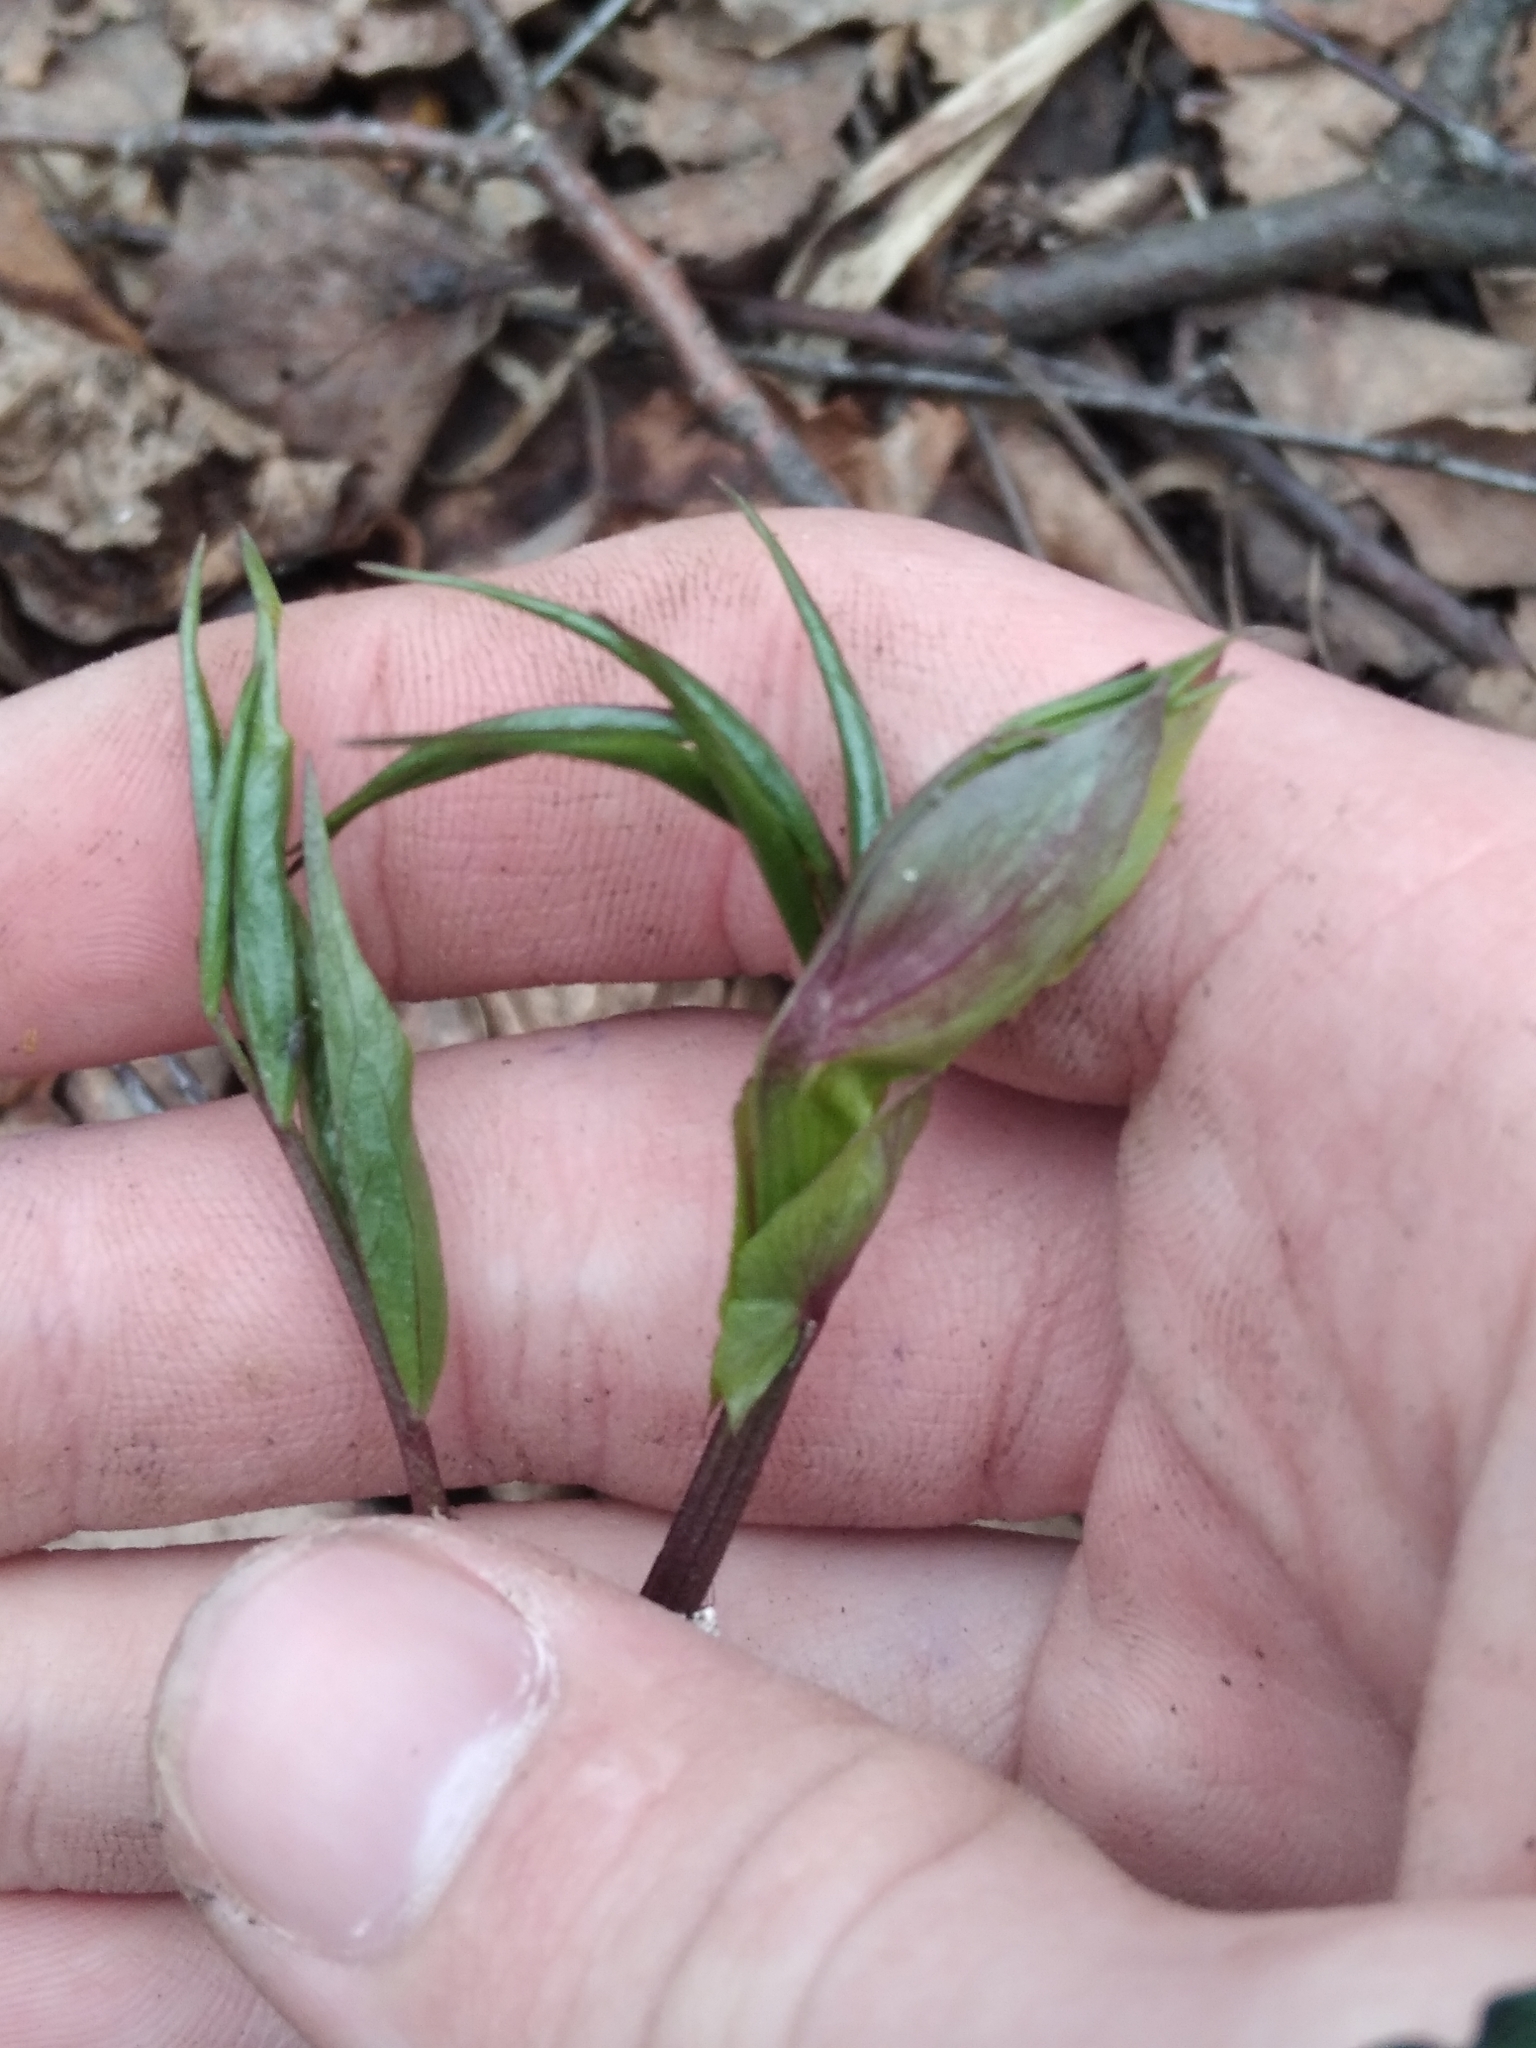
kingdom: Plantae
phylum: Tracheophyta
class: Magnoliopsida
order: Fabales
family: Fabaceae
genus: Lathyrus
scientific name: Lathyrus vernus
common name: Spring pea
